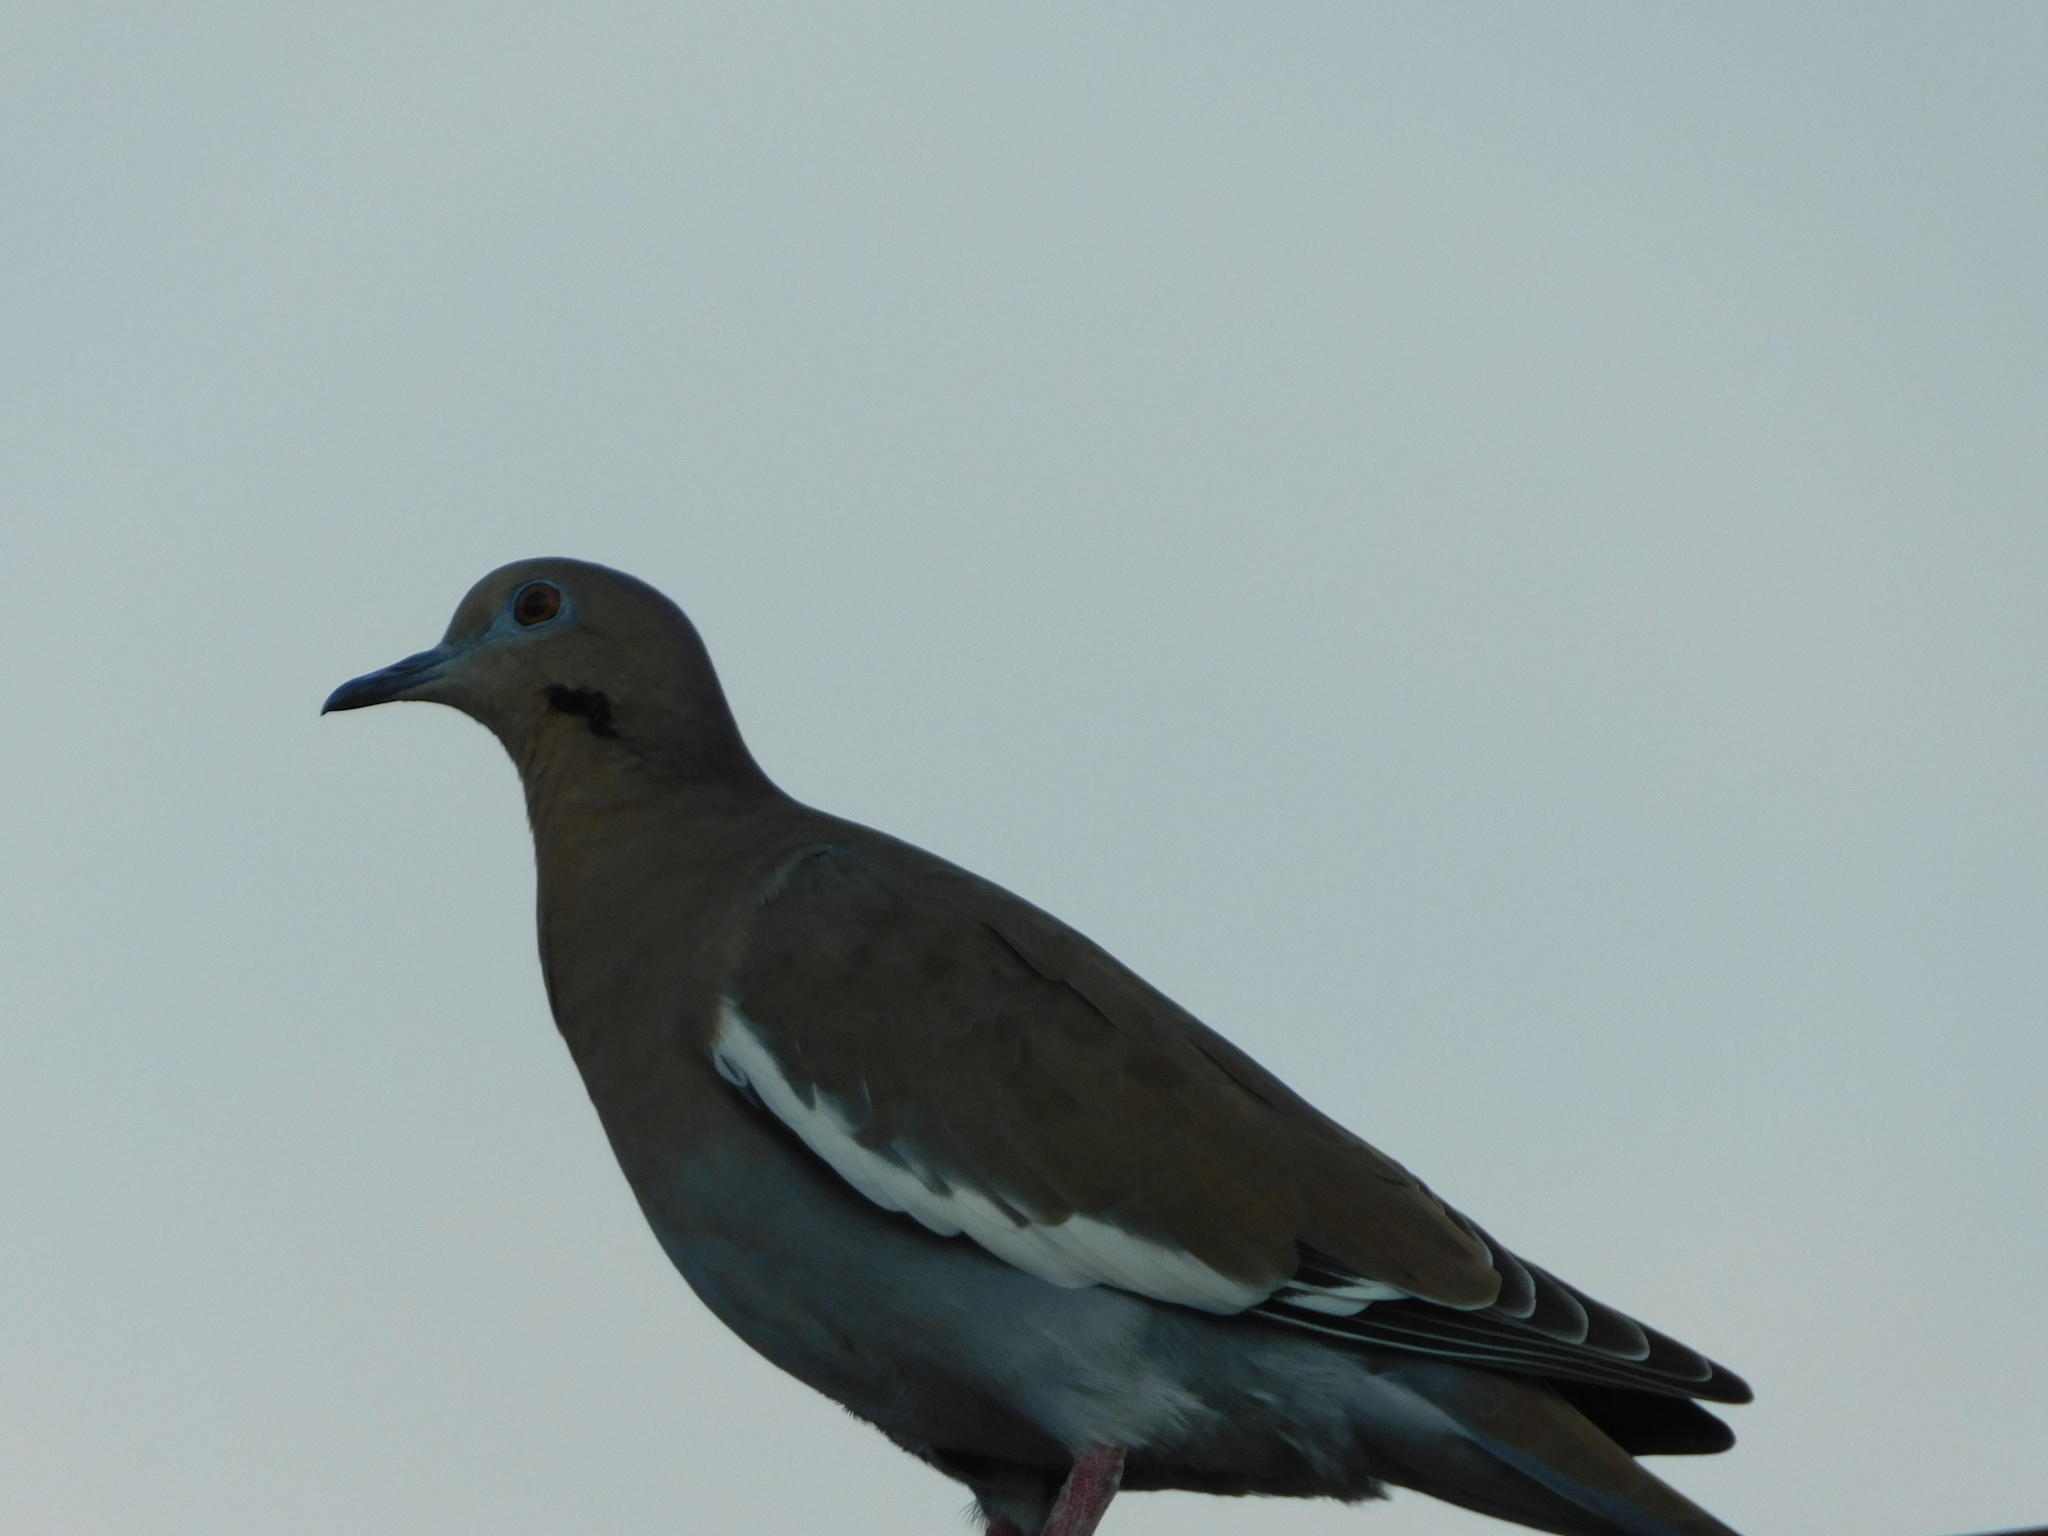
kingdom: Animalia
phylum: Chordata
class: Aves
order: Columbiformes
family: Columbidae
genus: Zenaida
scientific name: Zenaida asiatica
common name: White-winged dove
